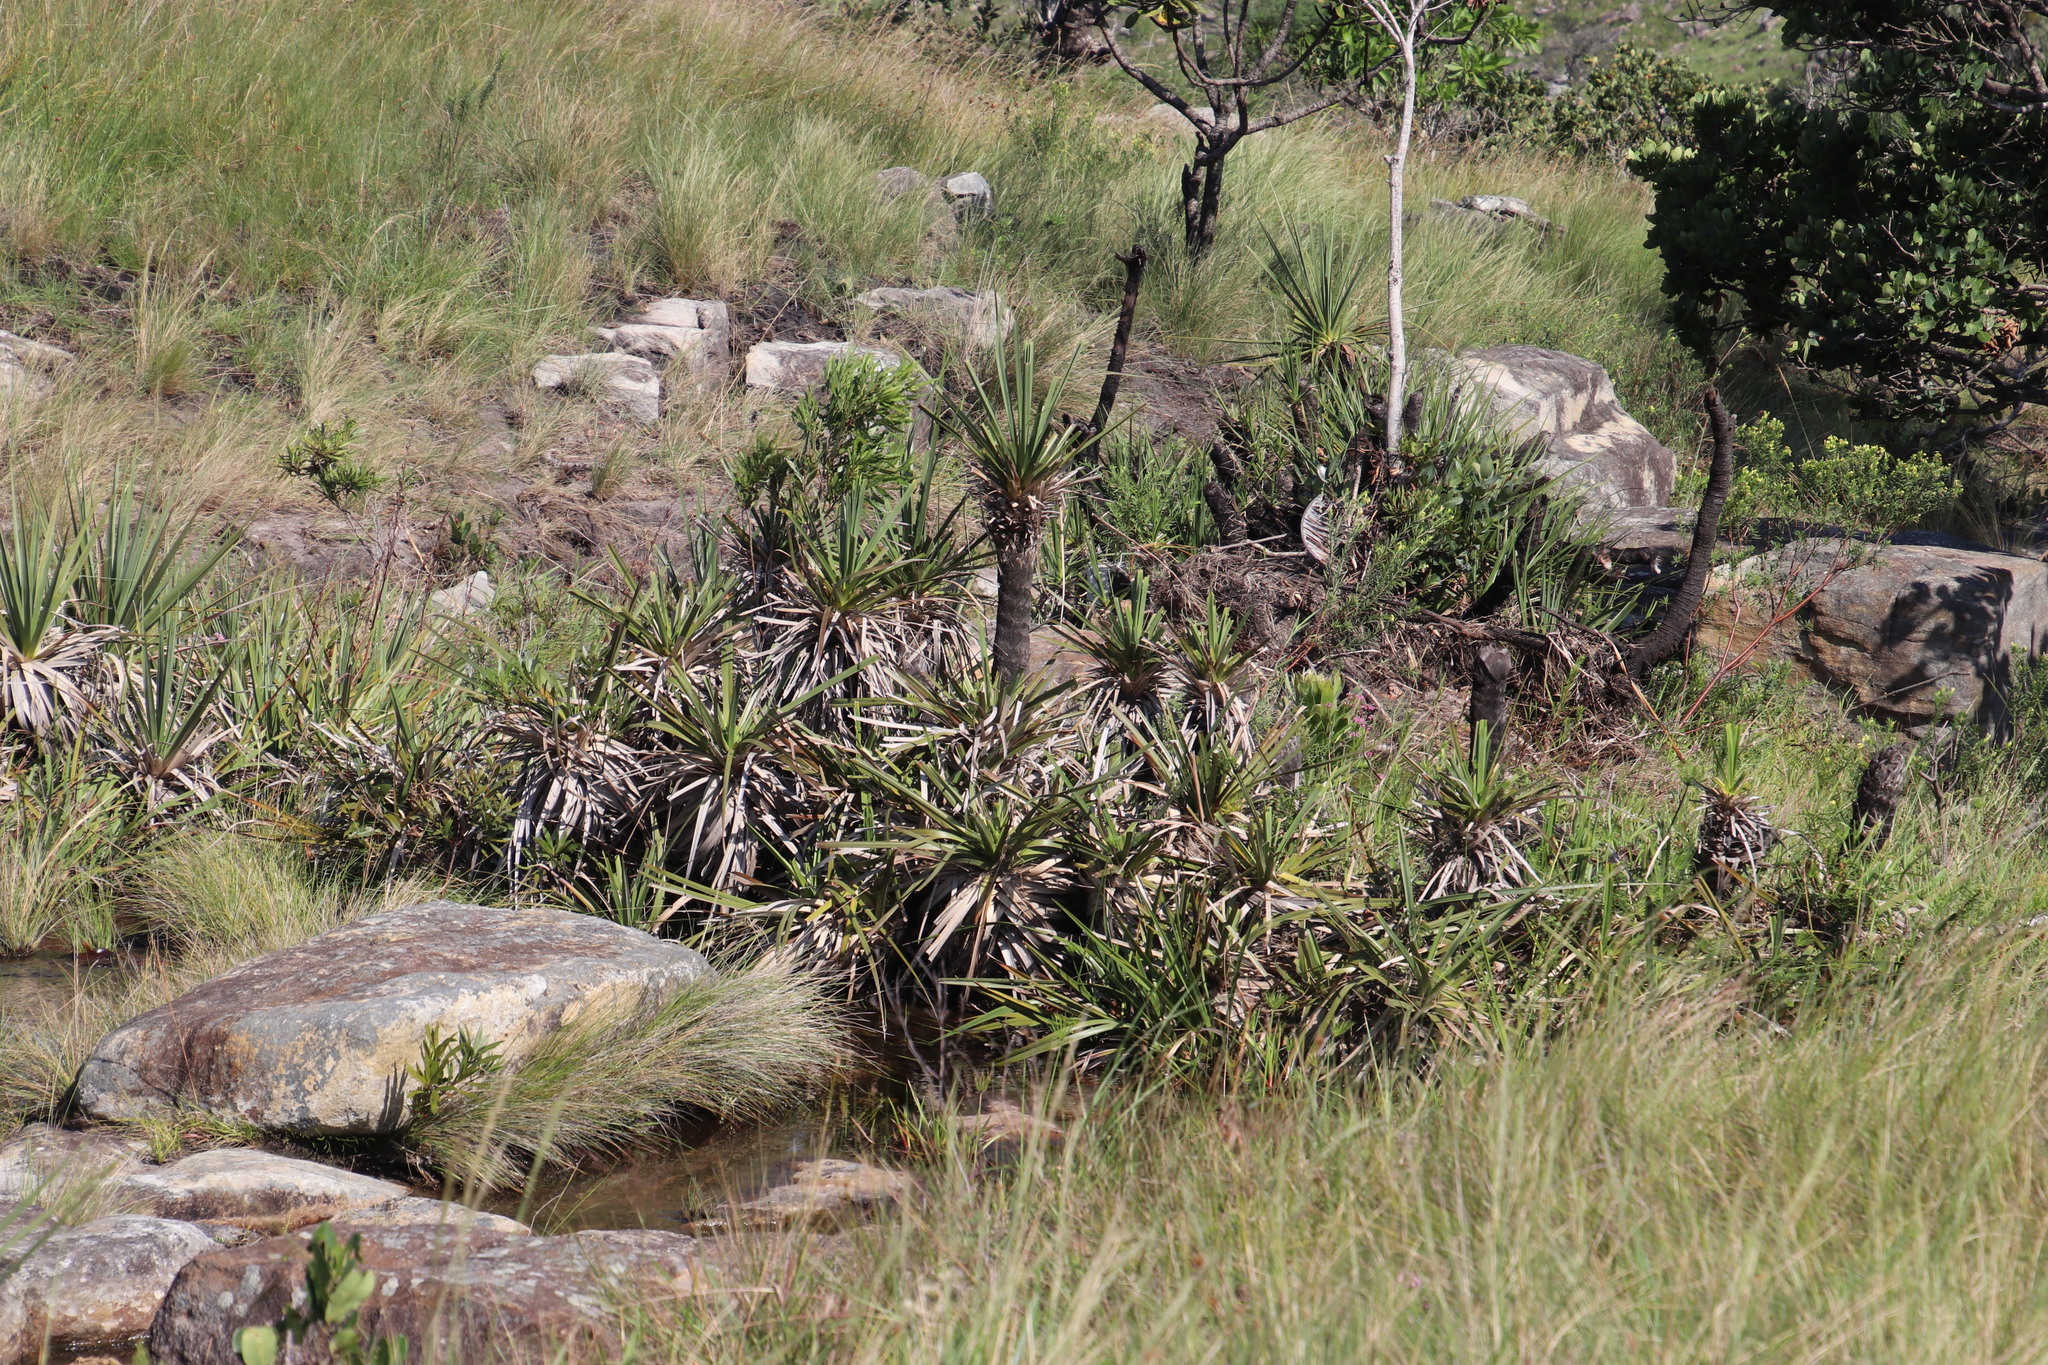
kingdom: Plantae
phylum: Tracheophyta
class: Liliopsida
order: Poales
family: Thurniaceae
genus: Prionium
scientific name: Prionium serratum
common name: Palmiet
